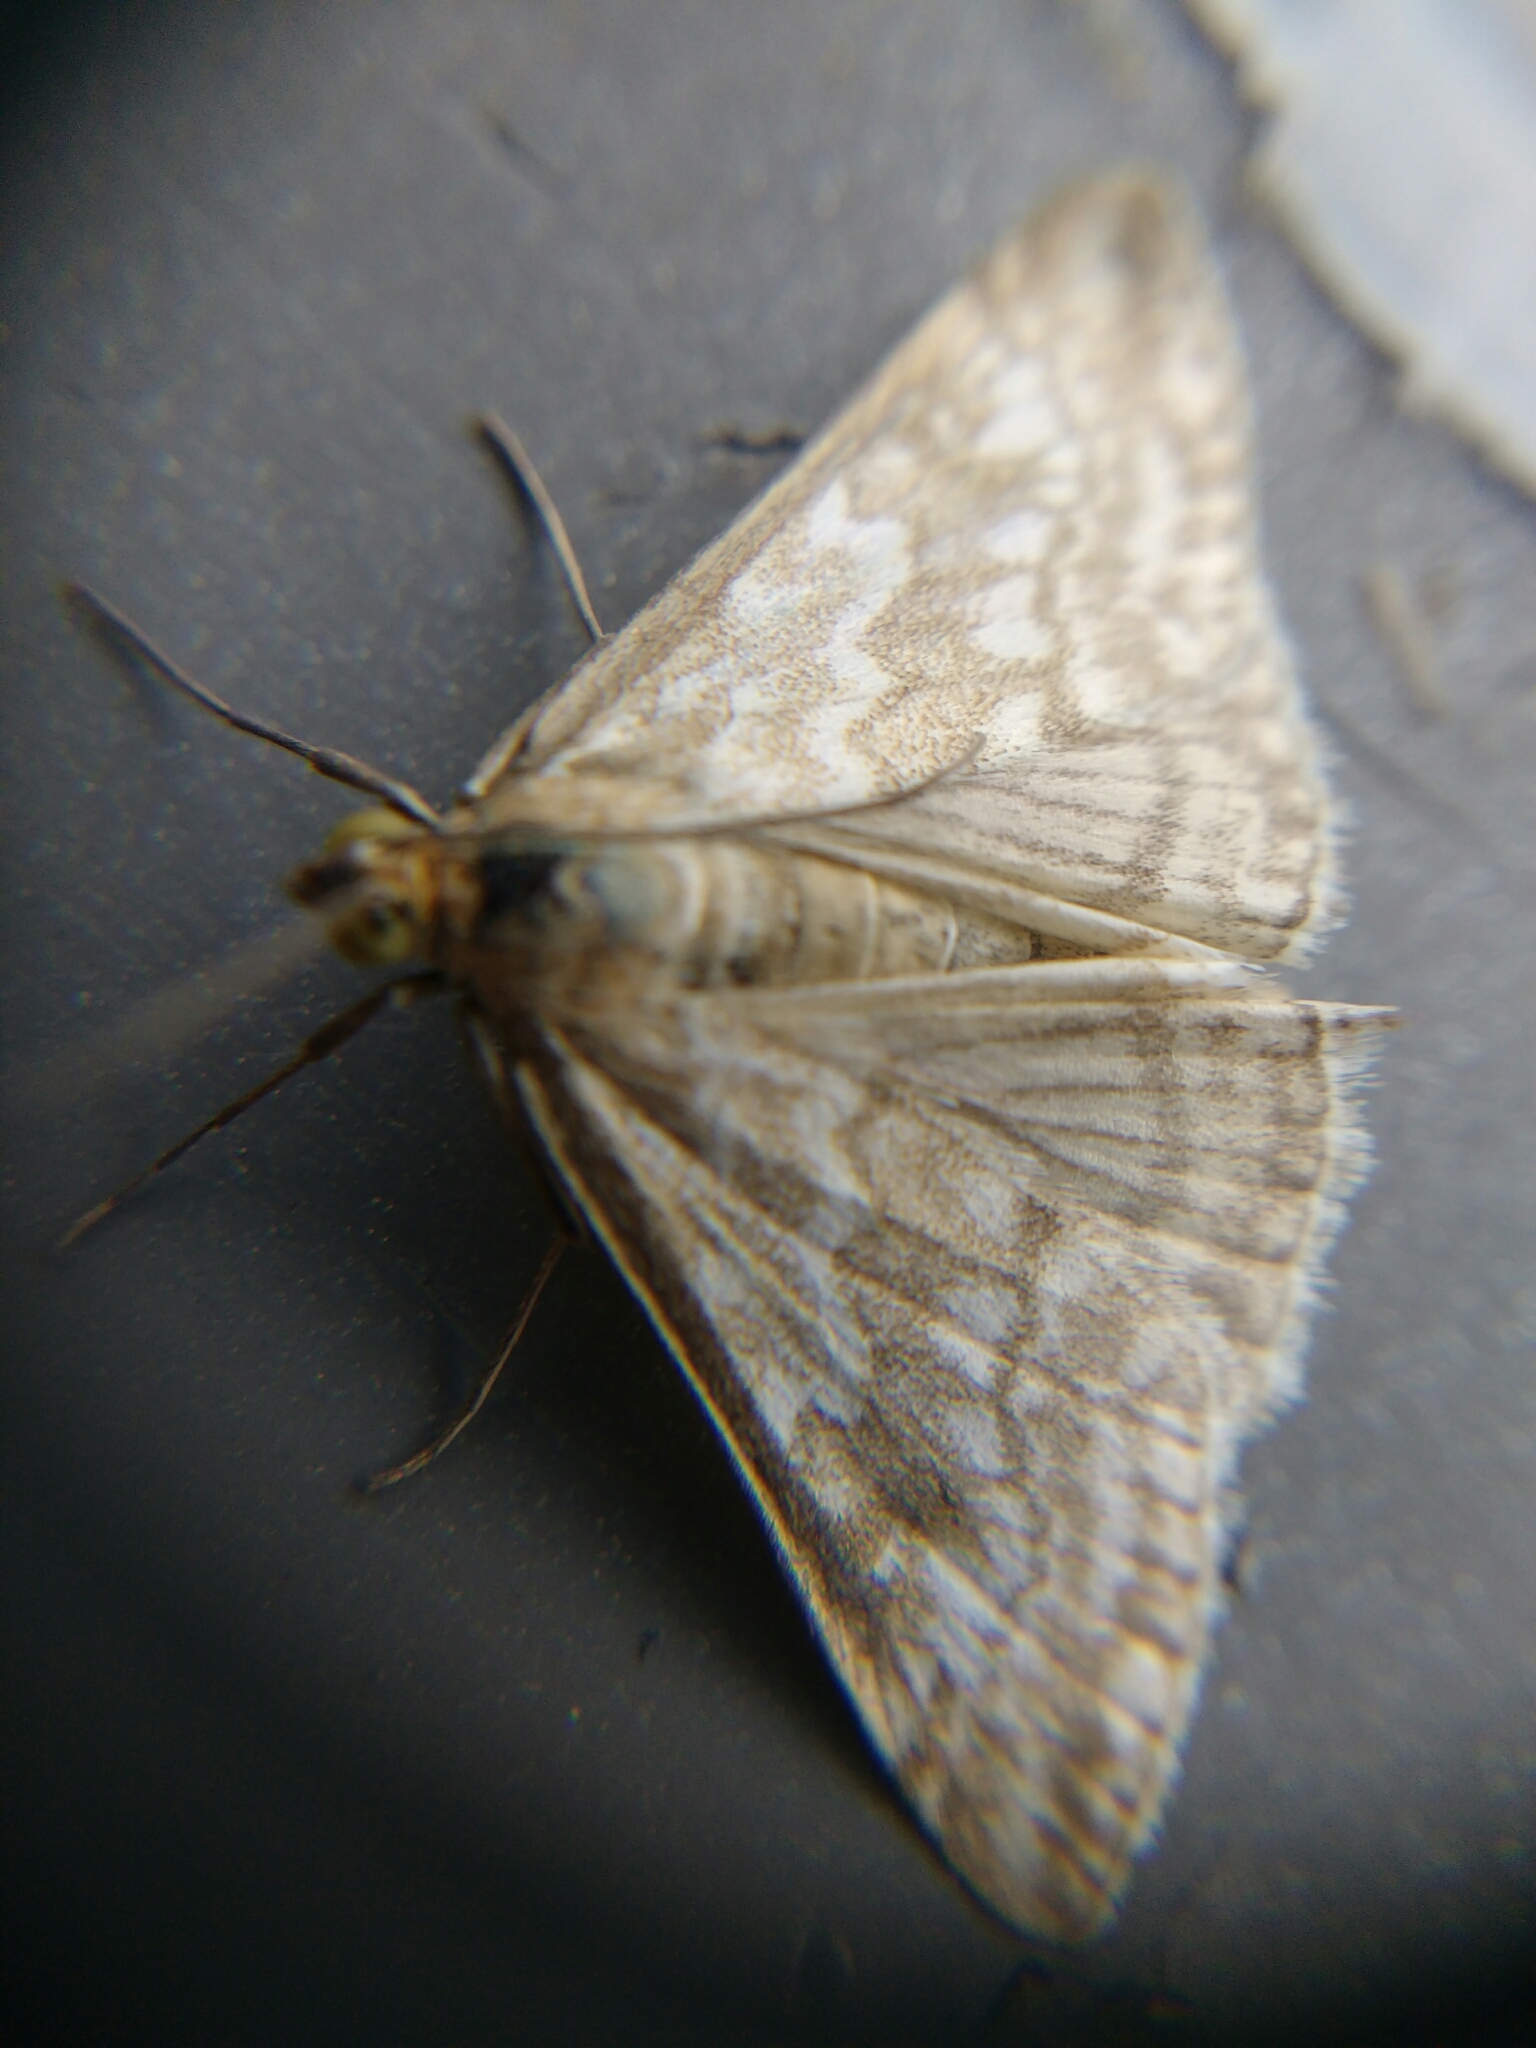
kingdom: Animalia
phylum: Arthropoda
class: Insecta
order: Lepidoptera
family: Crambidae
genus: Evergestis
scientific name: Evergestis frumentalis
